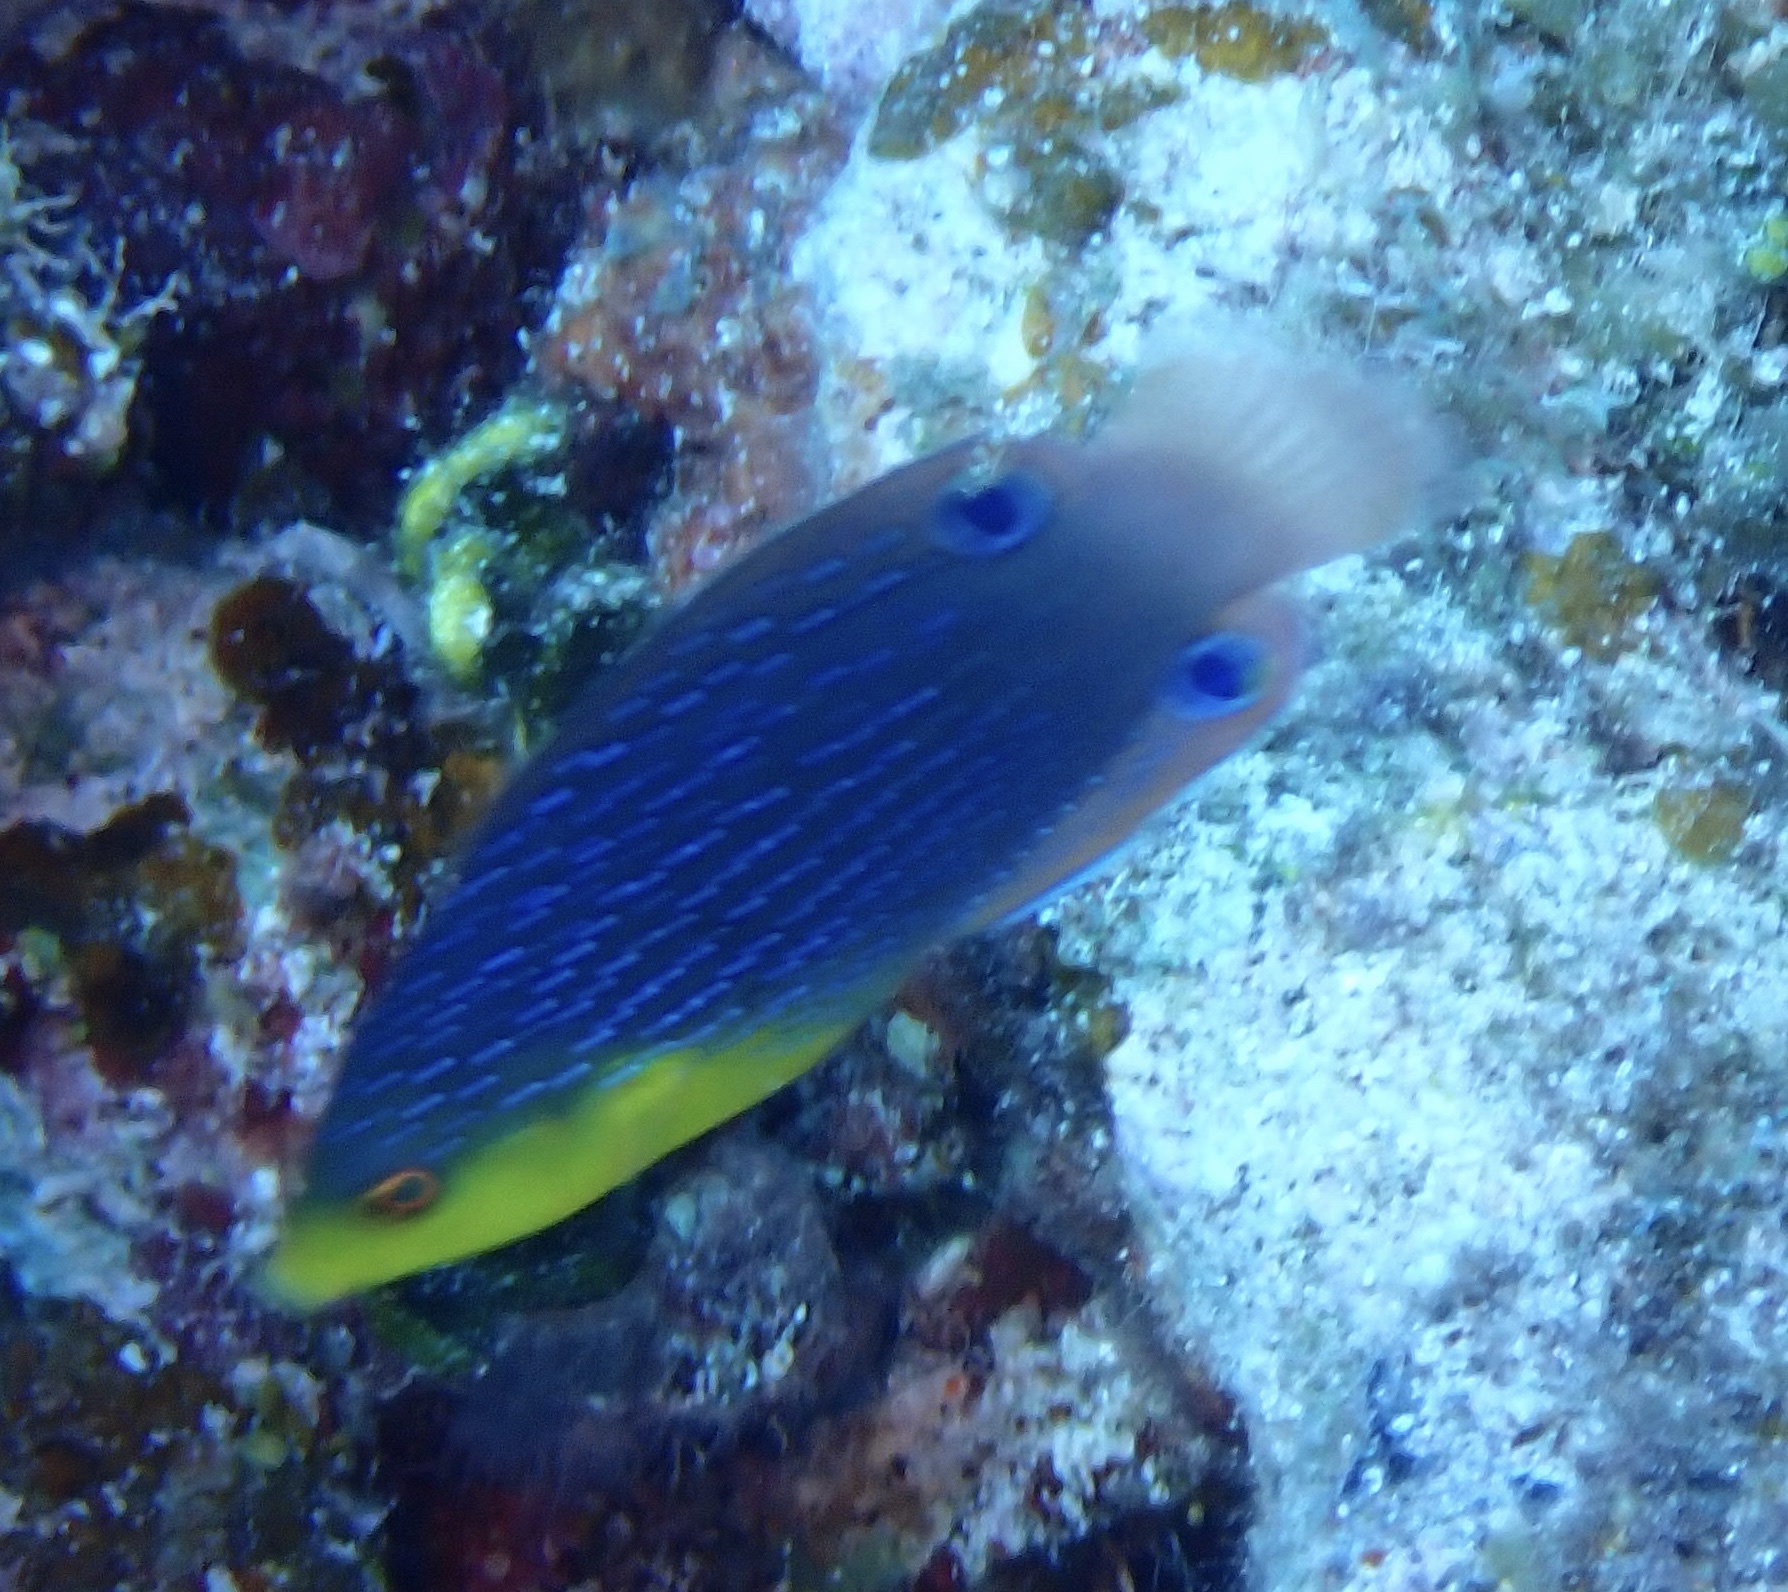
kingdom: Animalia
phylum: Chordata
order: Perciformes
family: Labridae
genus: Anampses
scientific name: Anampses twistii
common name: Yellowbreasted wrasse
